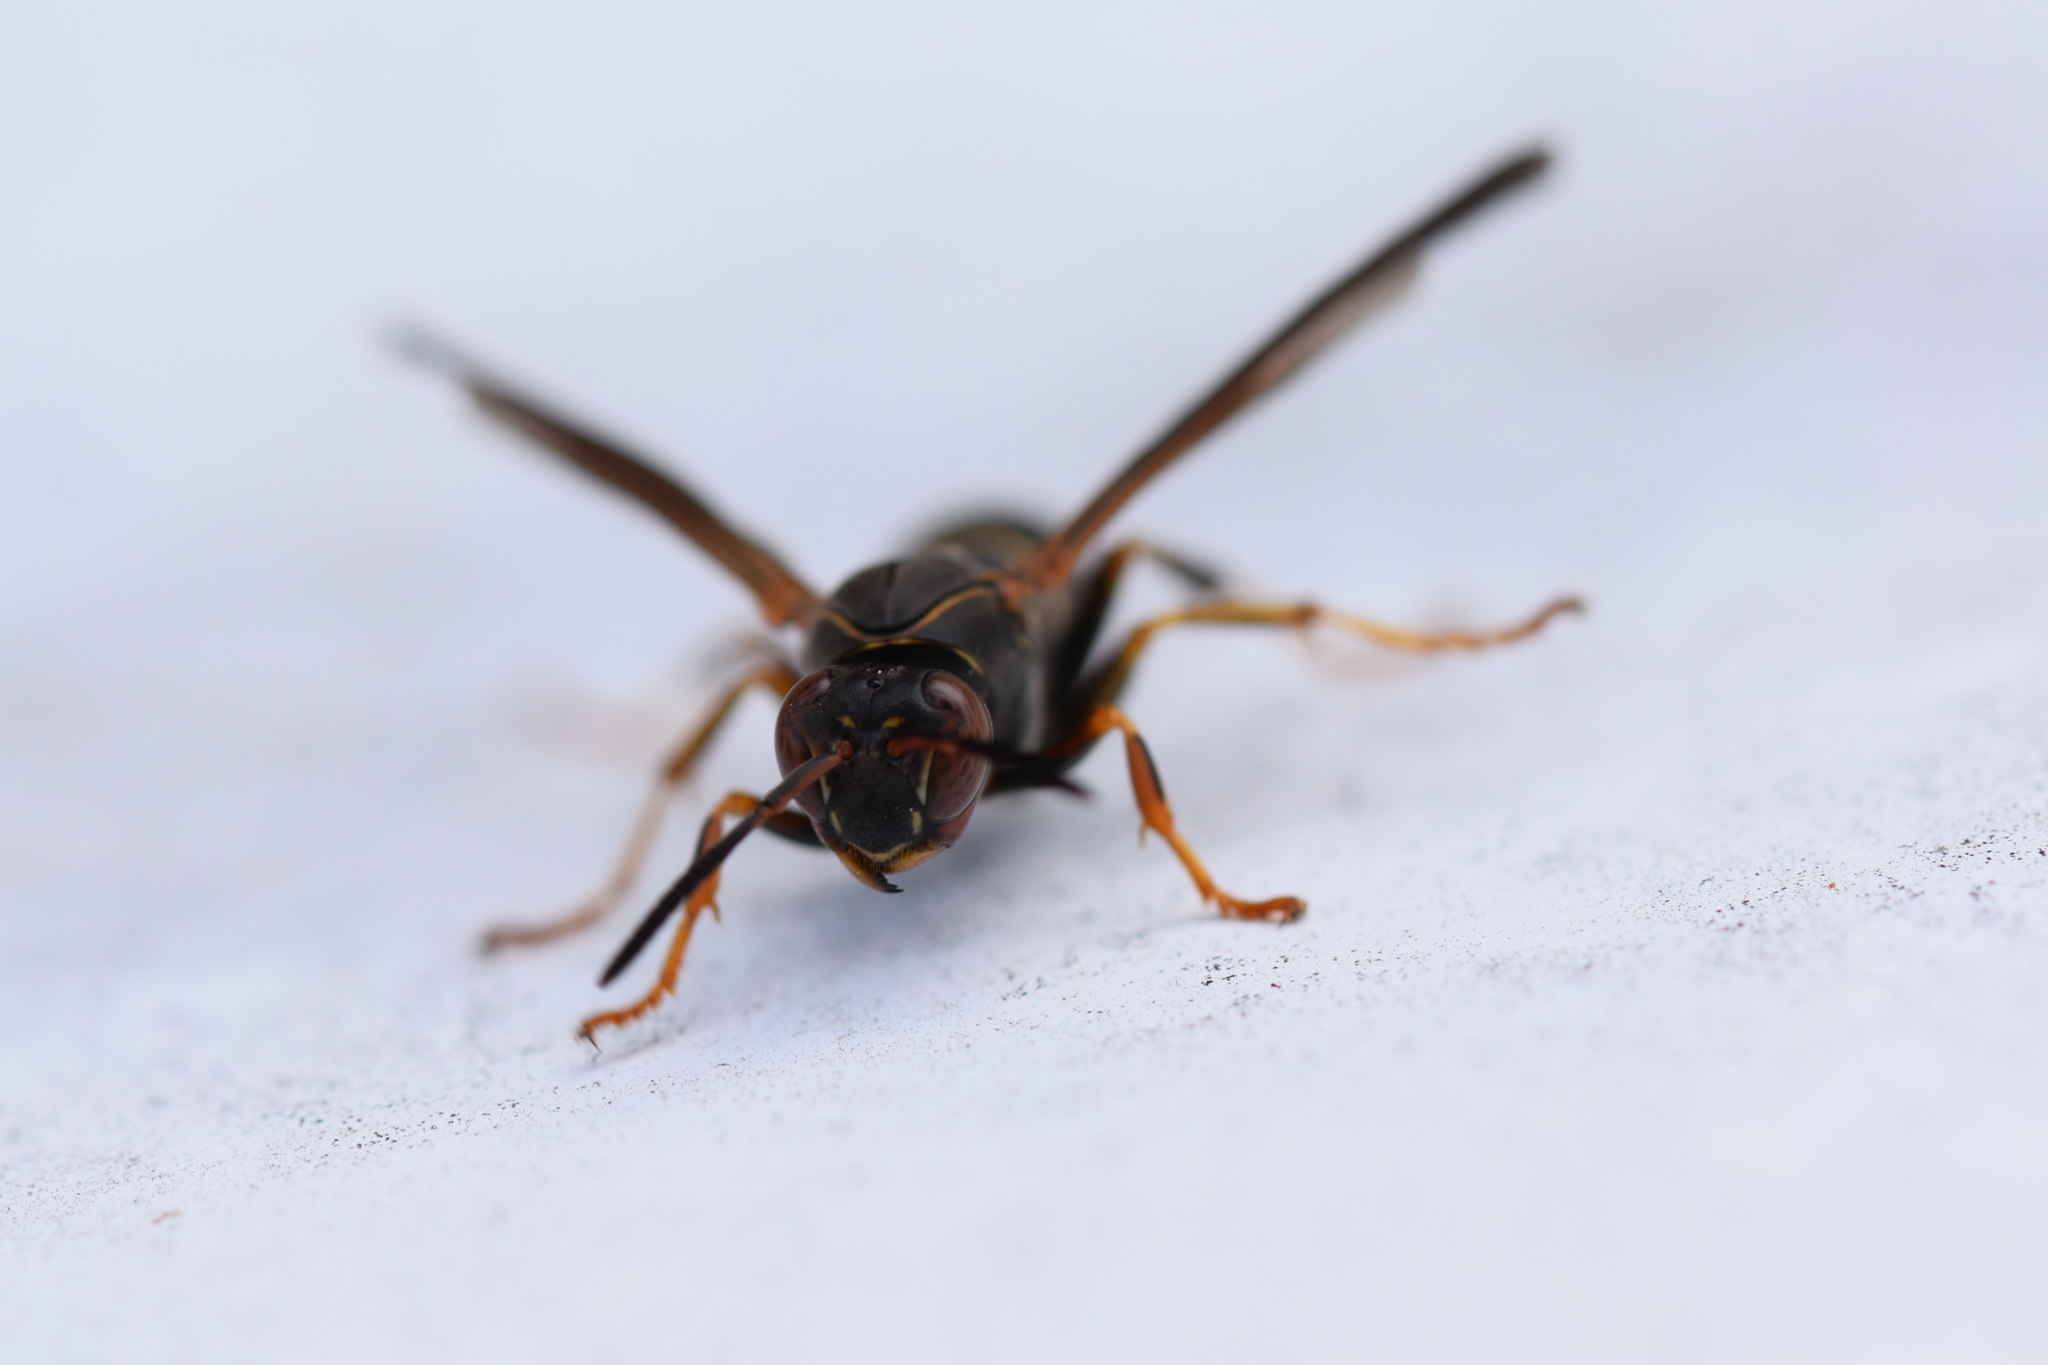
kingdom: Animalia
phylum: Arthropoda
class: Insecta
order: Hymenoptera
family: Eumenidae
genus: Polistes
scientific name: Polistes fuscatus
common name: Dark paper wasp
